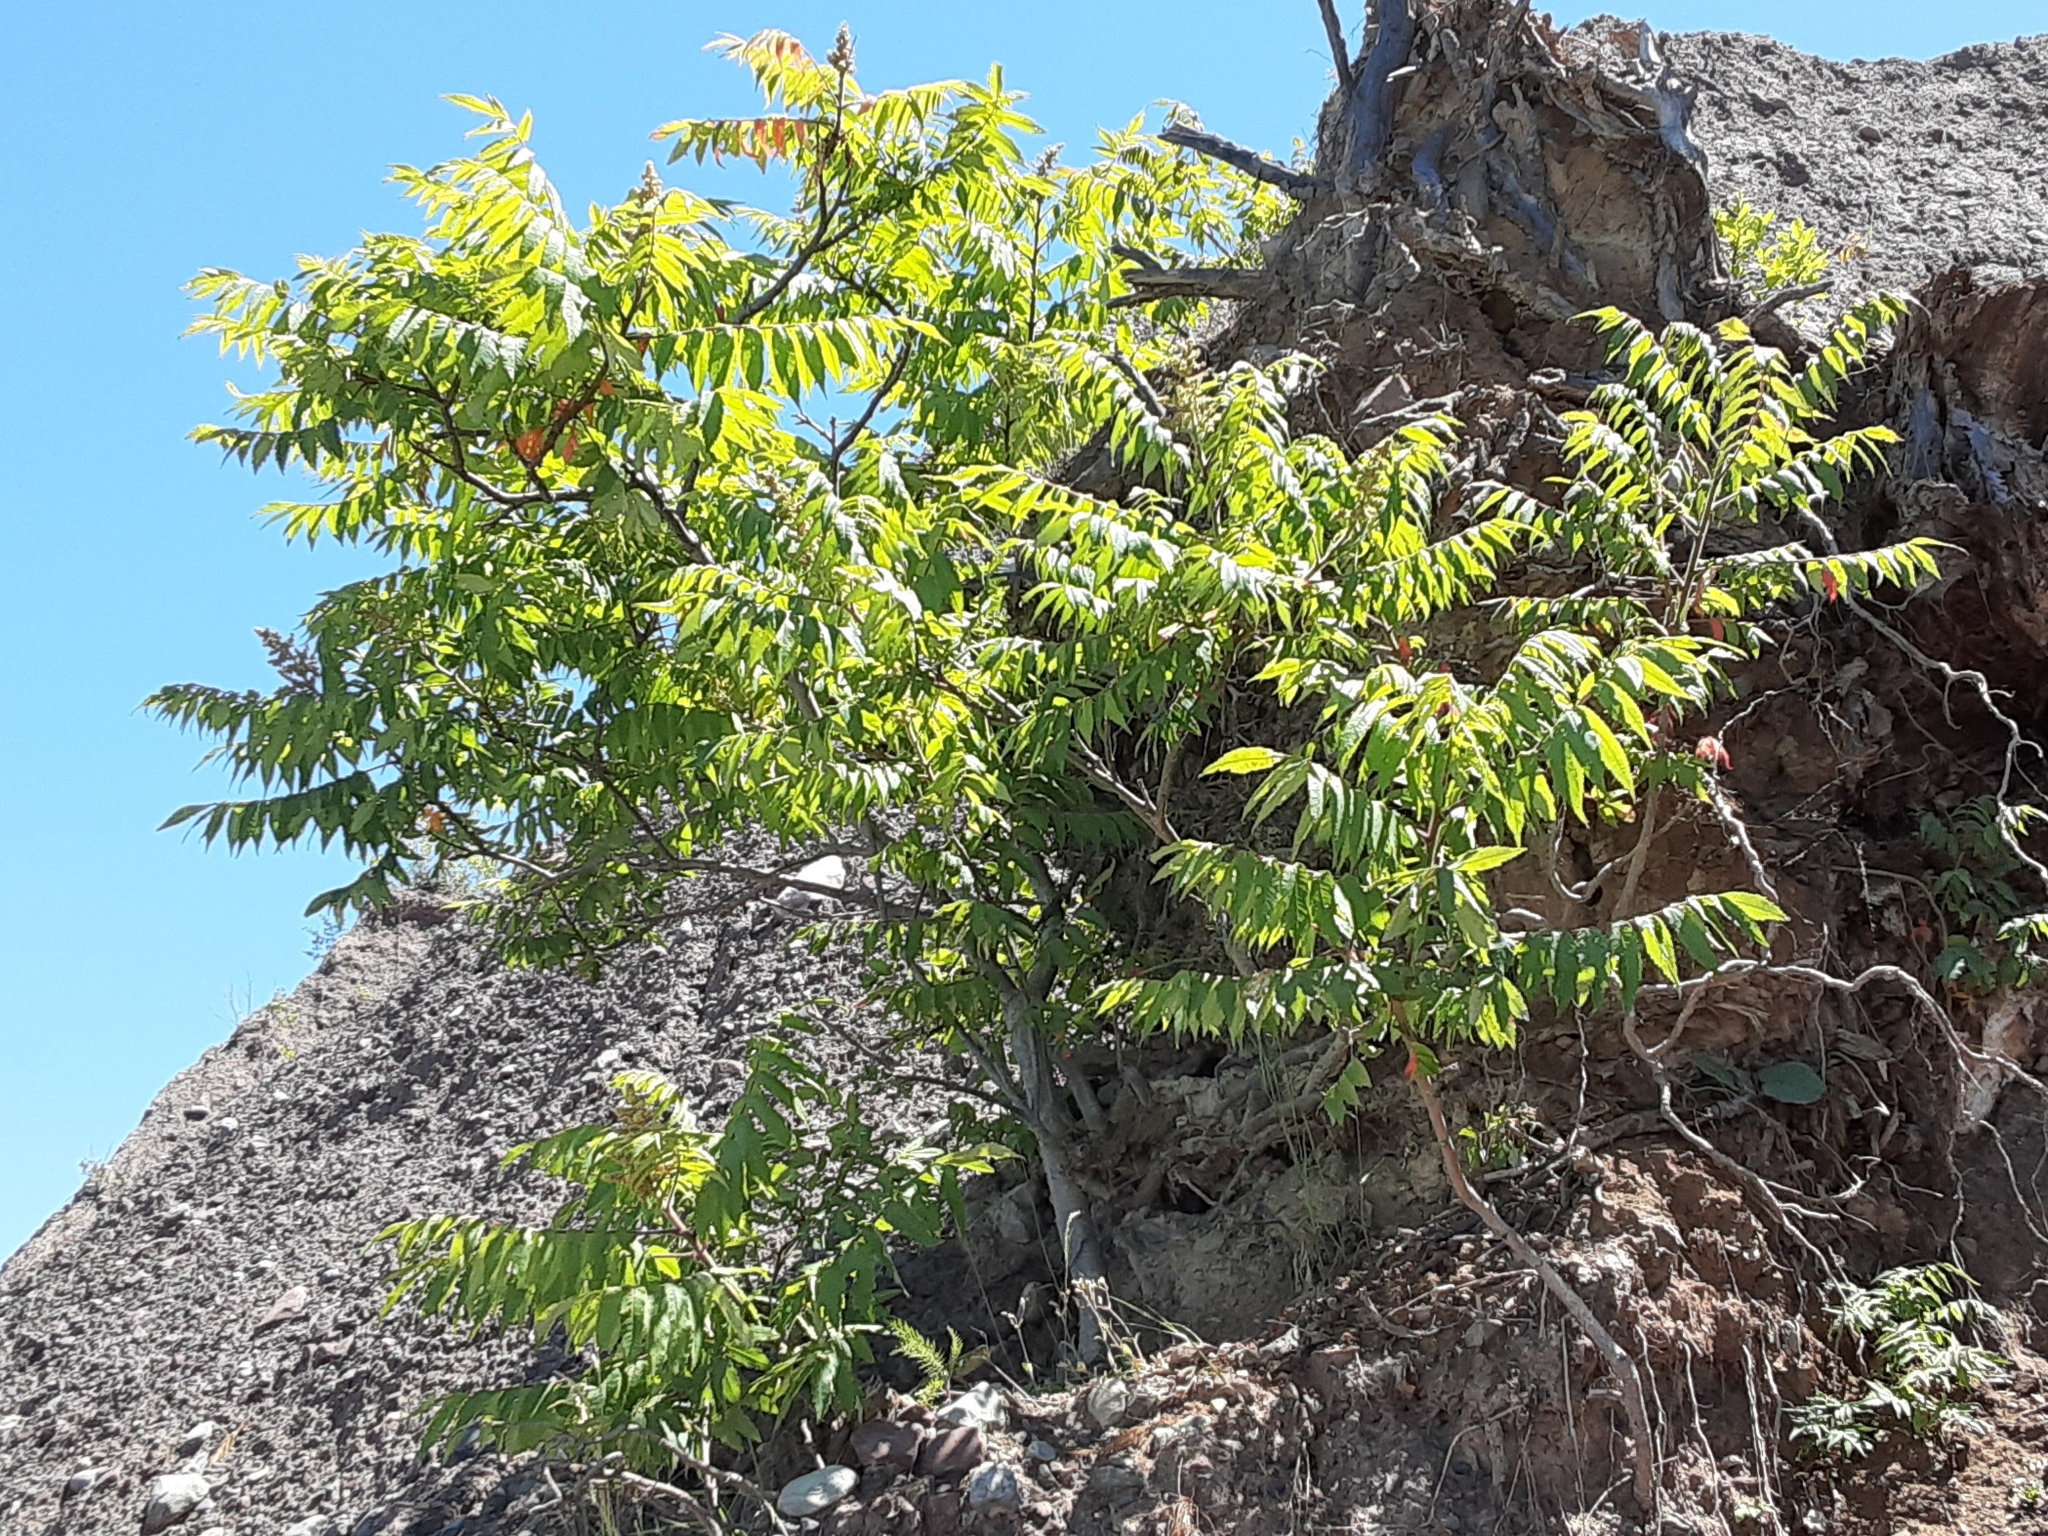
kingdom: Plantae
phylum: Tracheophyta
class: Magnoliopsida
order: Sapindales
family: Anacardiaceae
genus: Rhus
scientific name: Rhus typhina
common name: Staghorn sumac
